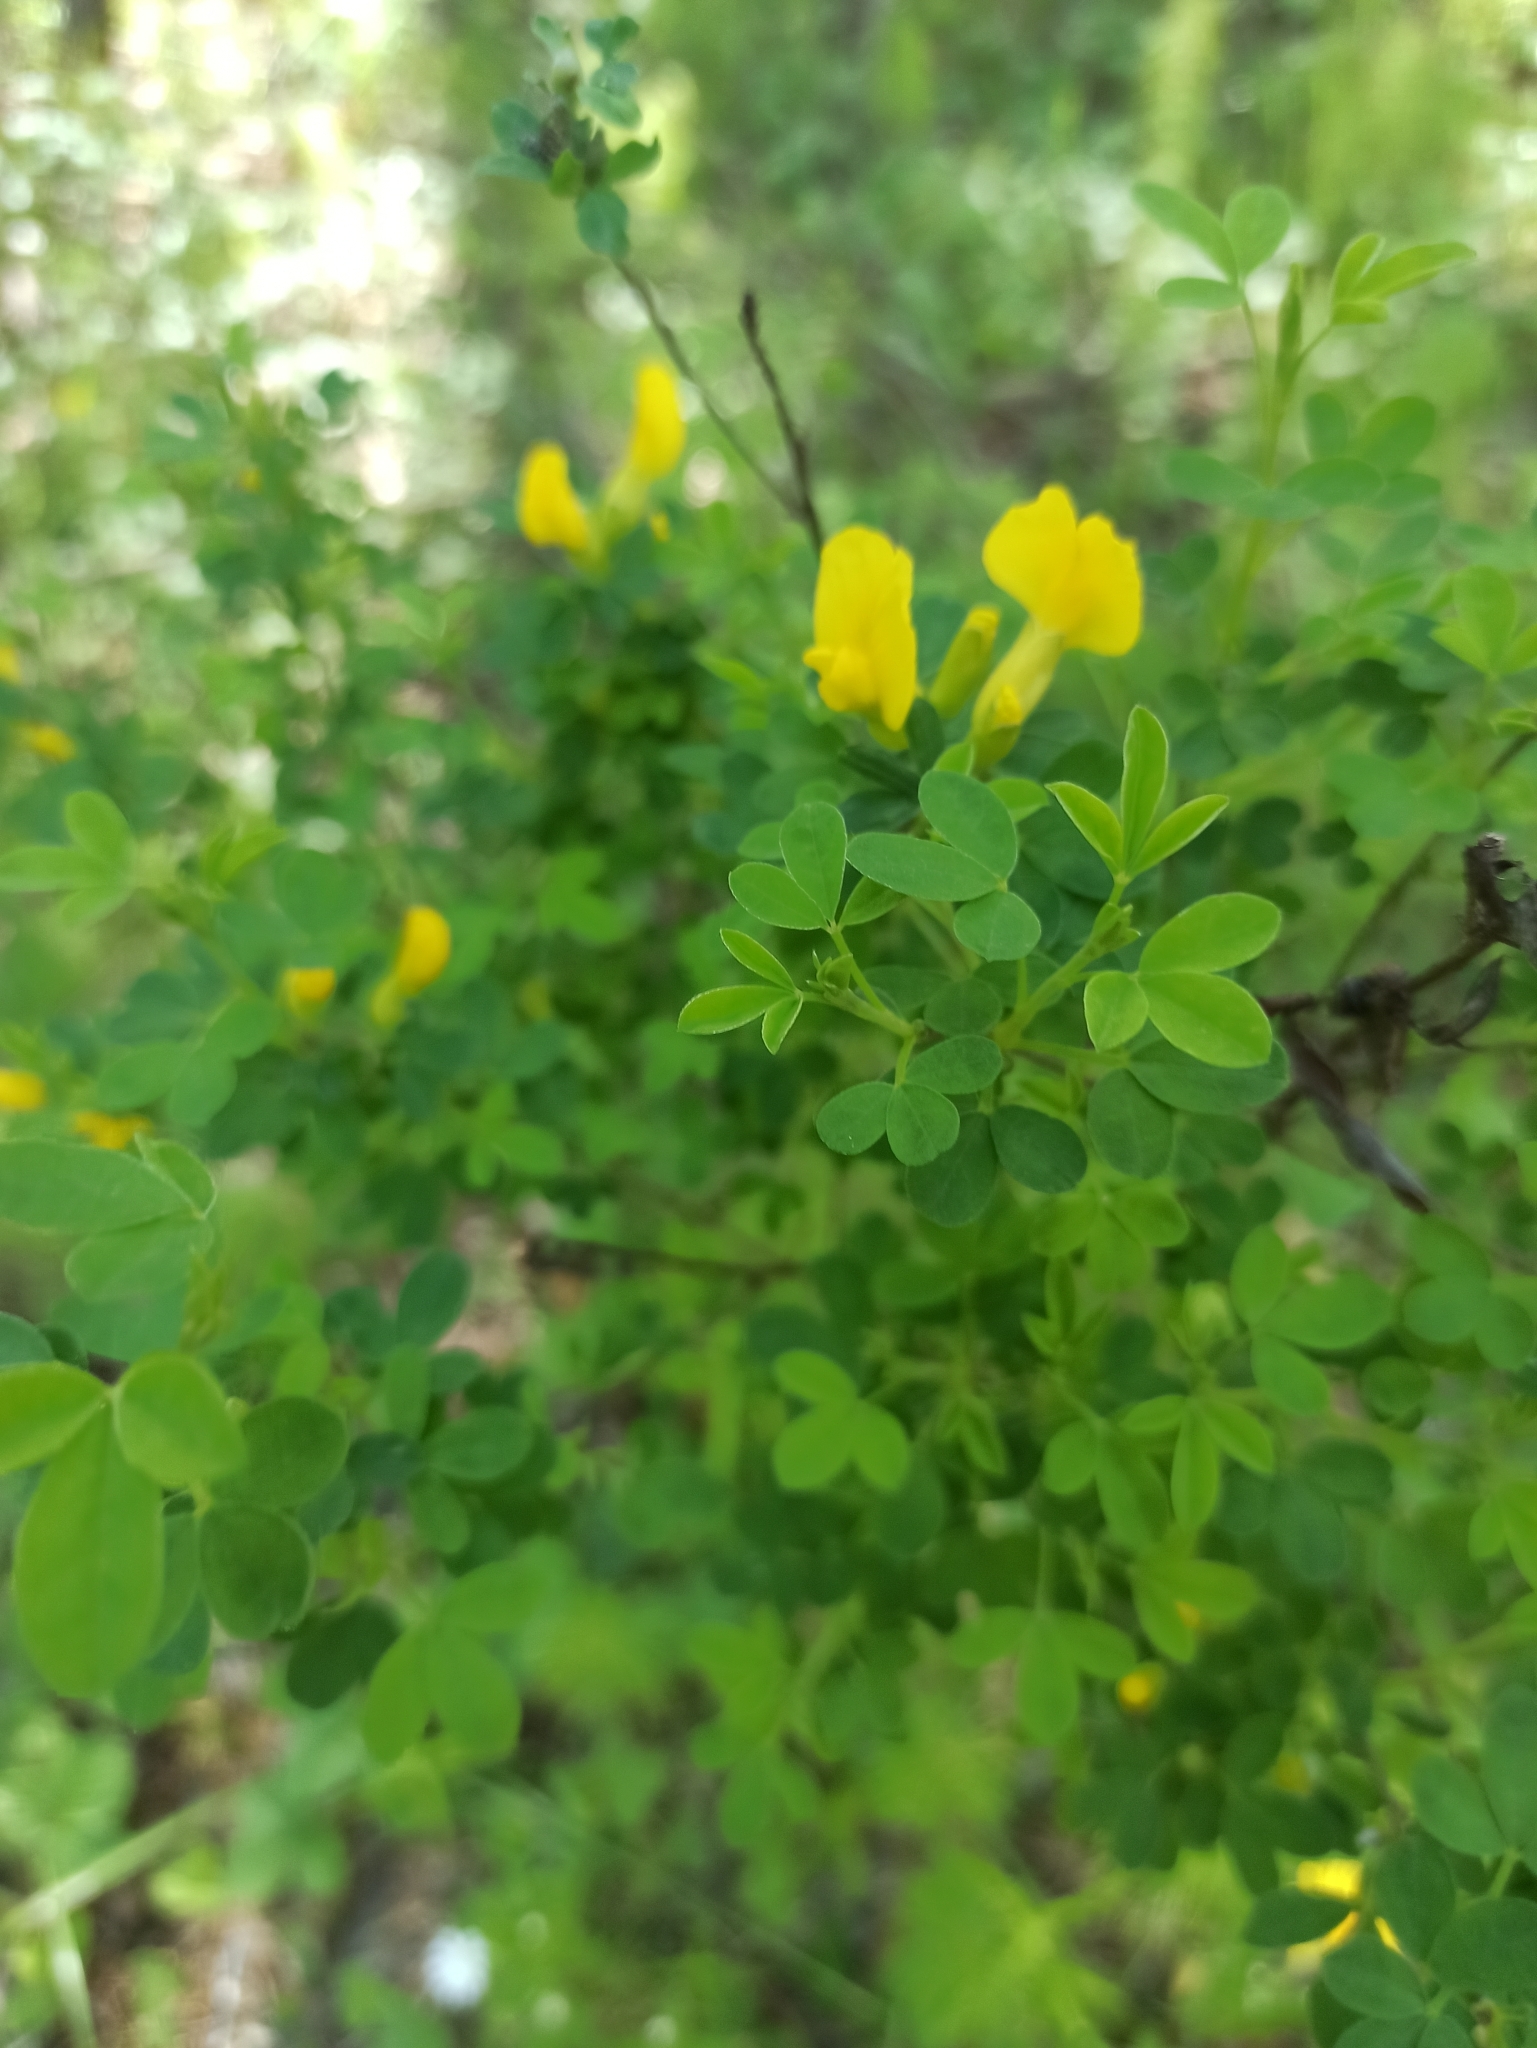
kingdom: Plantae
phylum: Tracheophyta
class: Magnoliopsida
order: Fabales
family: Fabaceae
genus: Chamaecytisus
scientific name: Chamaecytisus ruthenicus
